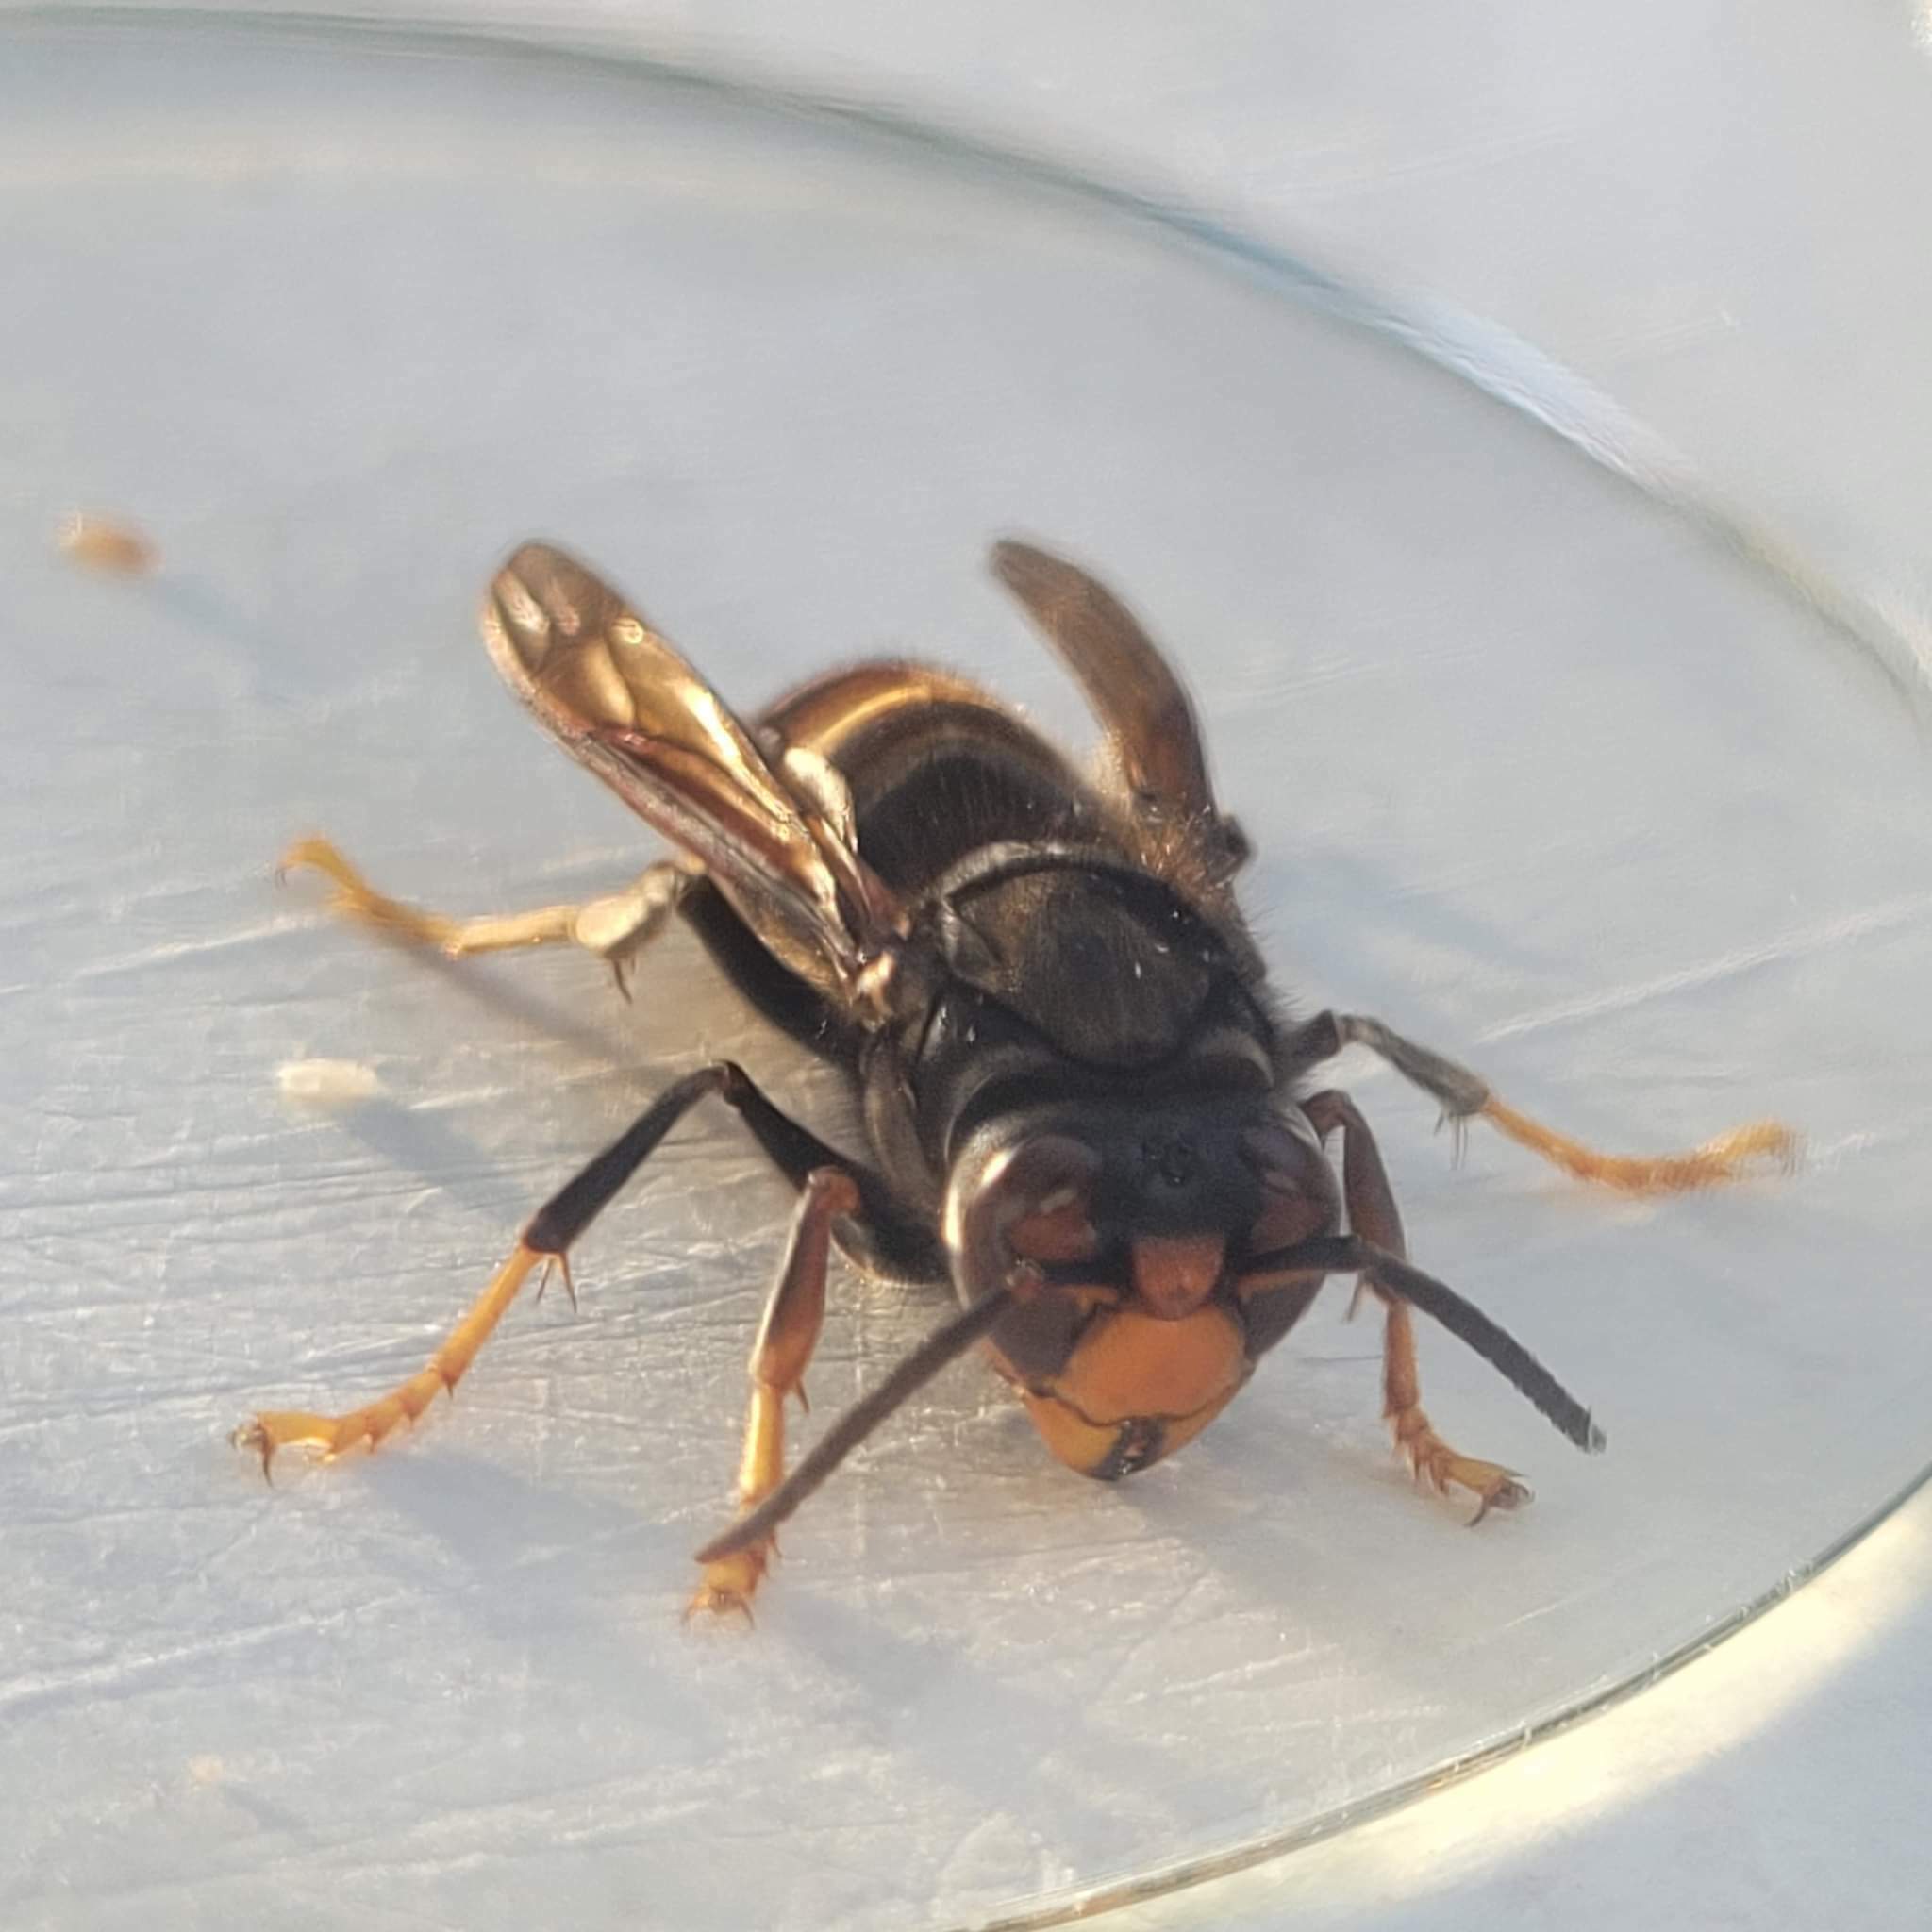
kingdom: Animalia
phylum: Arthropoda
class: Insecta
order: Hymenoptera
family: Vespidae
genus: Vespa
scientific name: Vespa velutina
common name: Asian hornet
